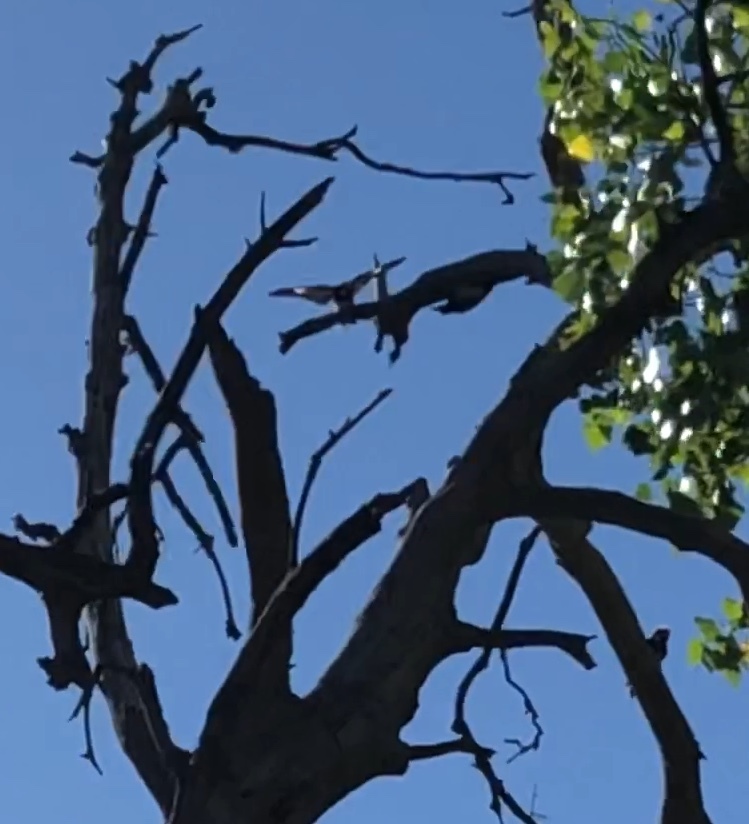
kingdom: Animalia
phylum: Chordata
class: Aves
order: Piciformes
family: Picidae
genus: Melanerpes
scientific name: Melanerpes formicivorus
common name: Acorn woodpecker
